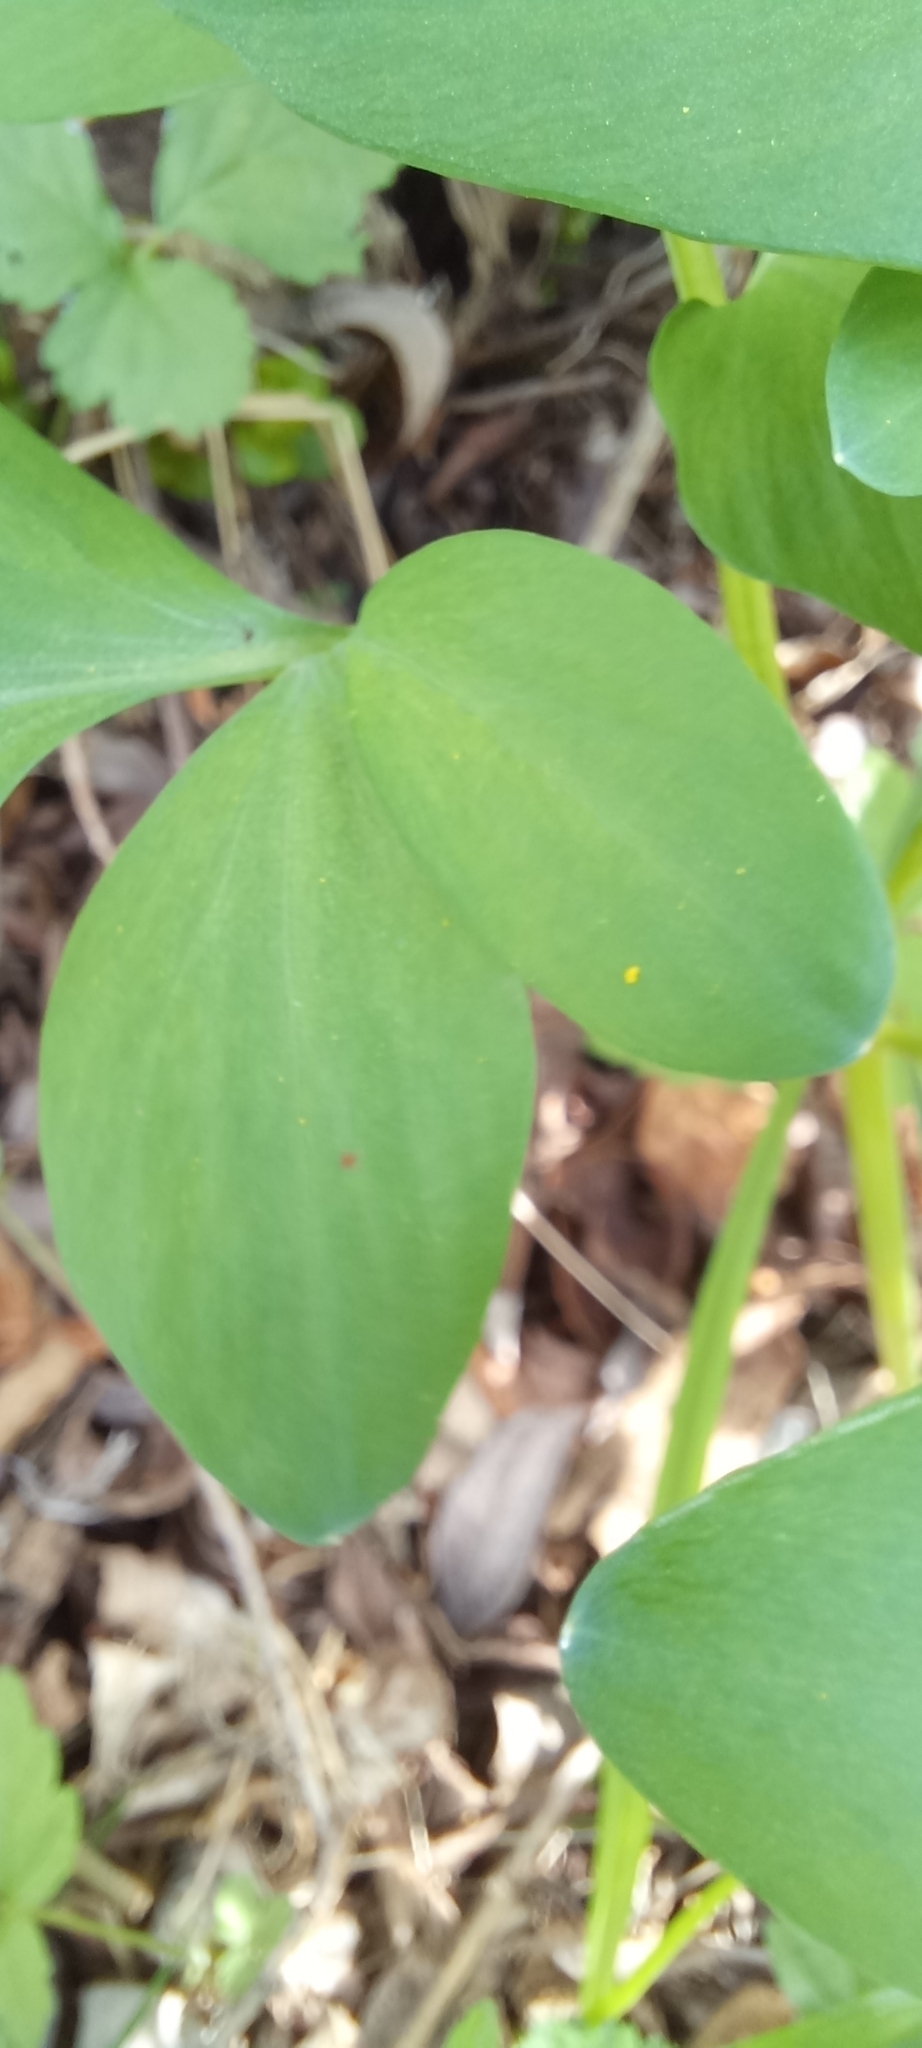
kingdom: Plantae
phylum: Tracheophyta
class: Magnoliopsida
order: Ranunculales
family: Papaveraceae
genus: Corydalis
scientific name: Corydalis cava
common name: Hollowroot
